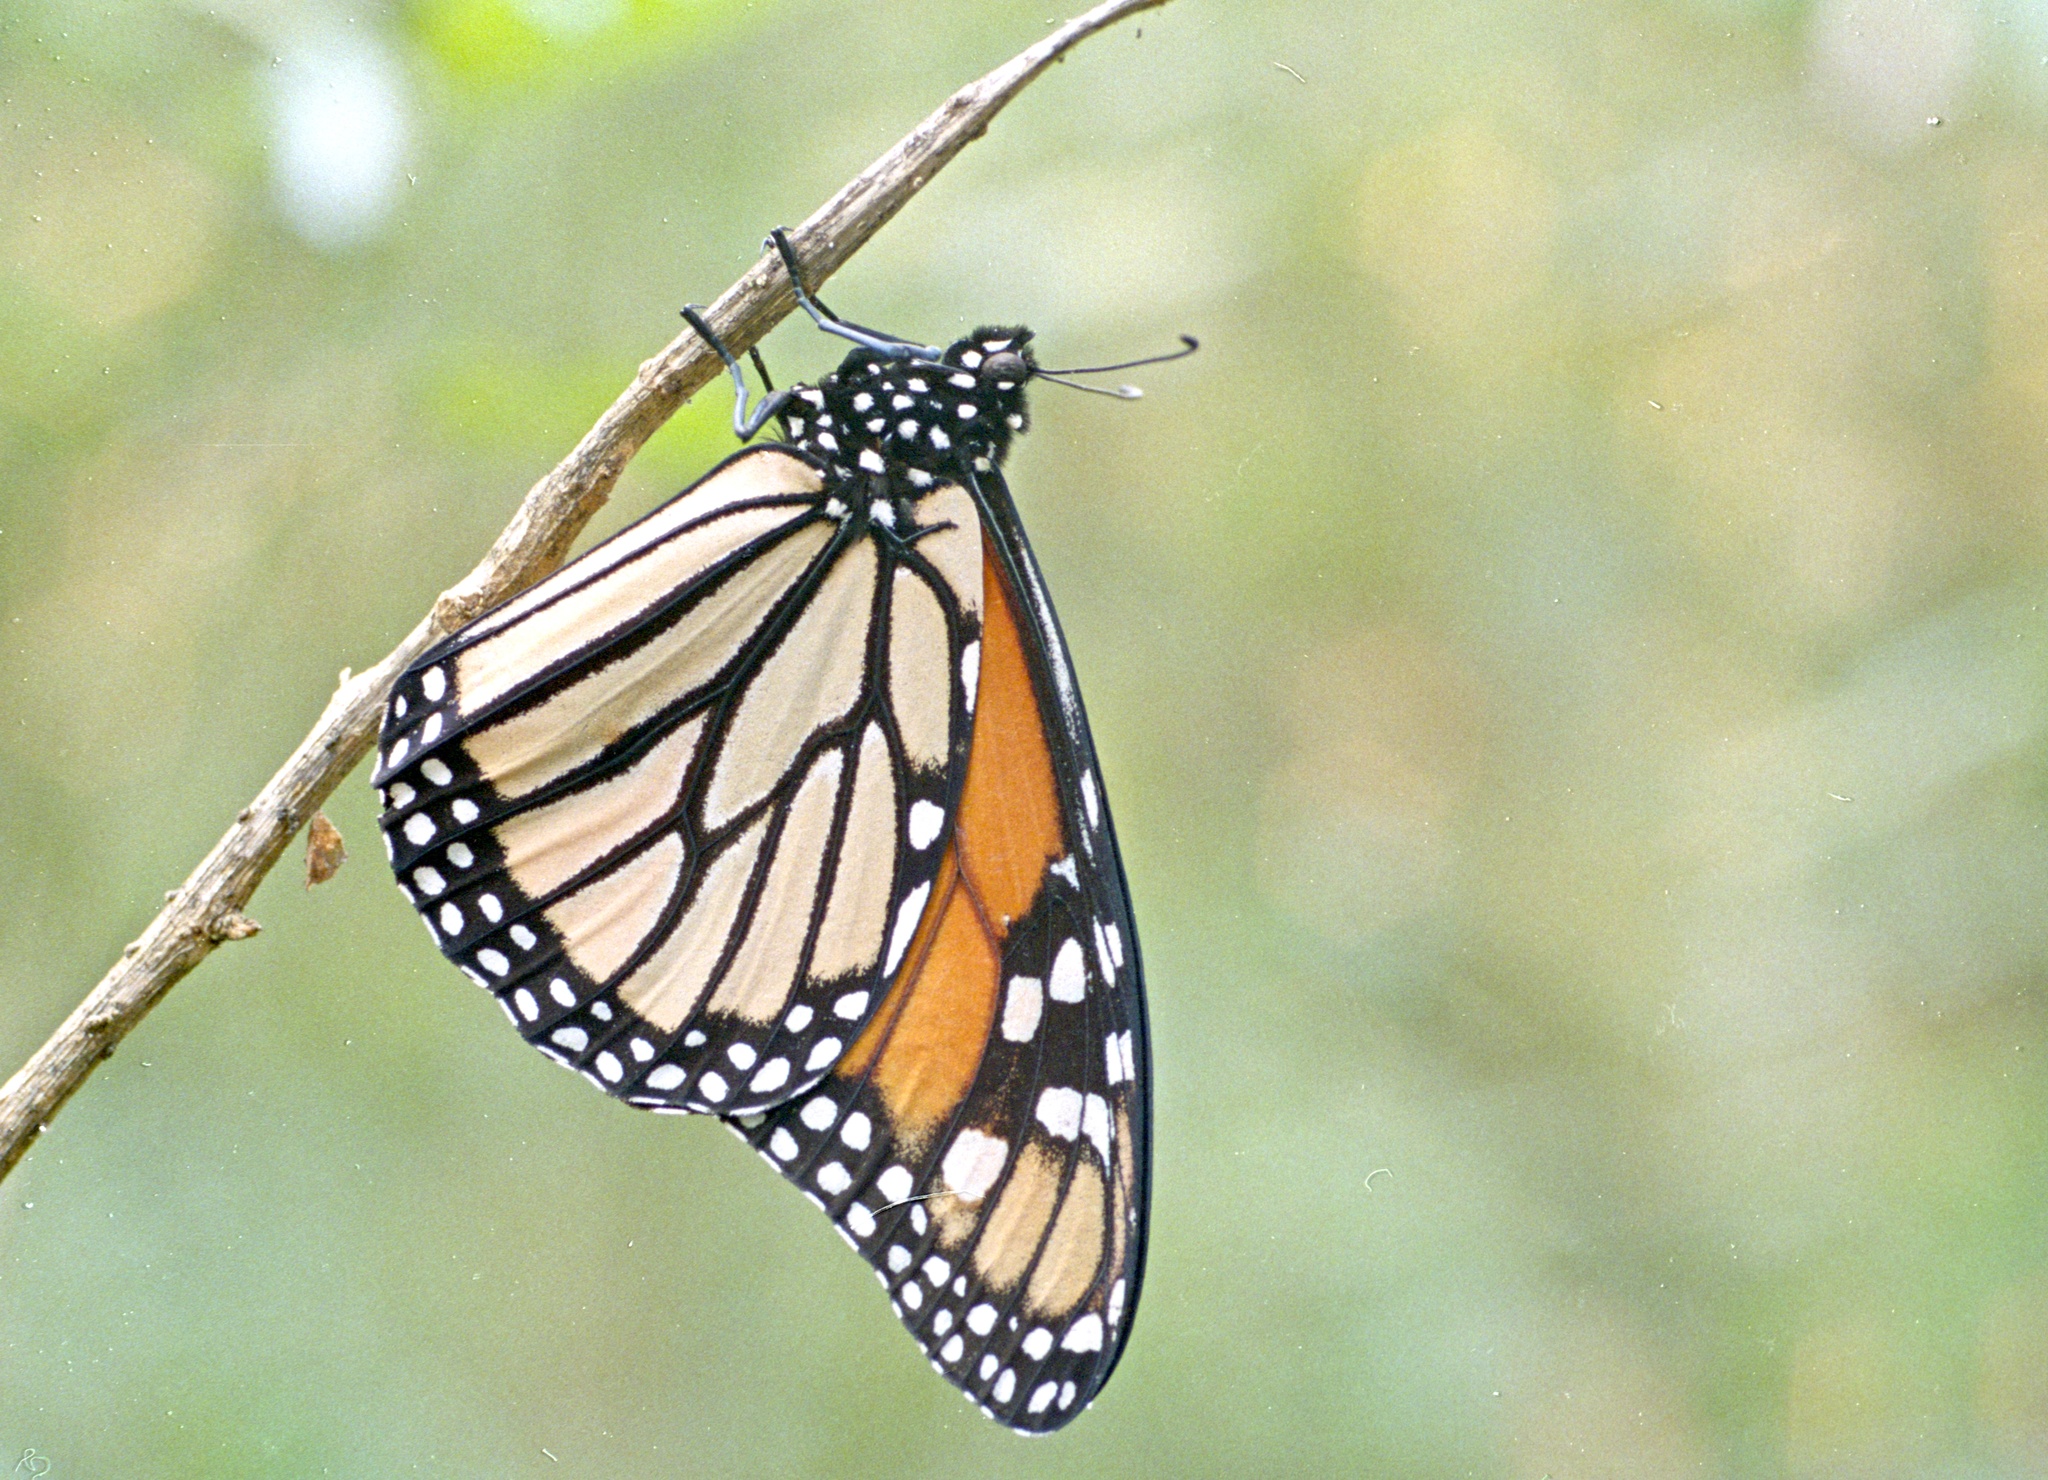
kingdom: Animalia
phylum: Arthropoda
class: Insecta
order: Lepidoptera
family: Nymphalidae
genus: Danaus
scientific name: Danaus plexippus
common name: Monarch
